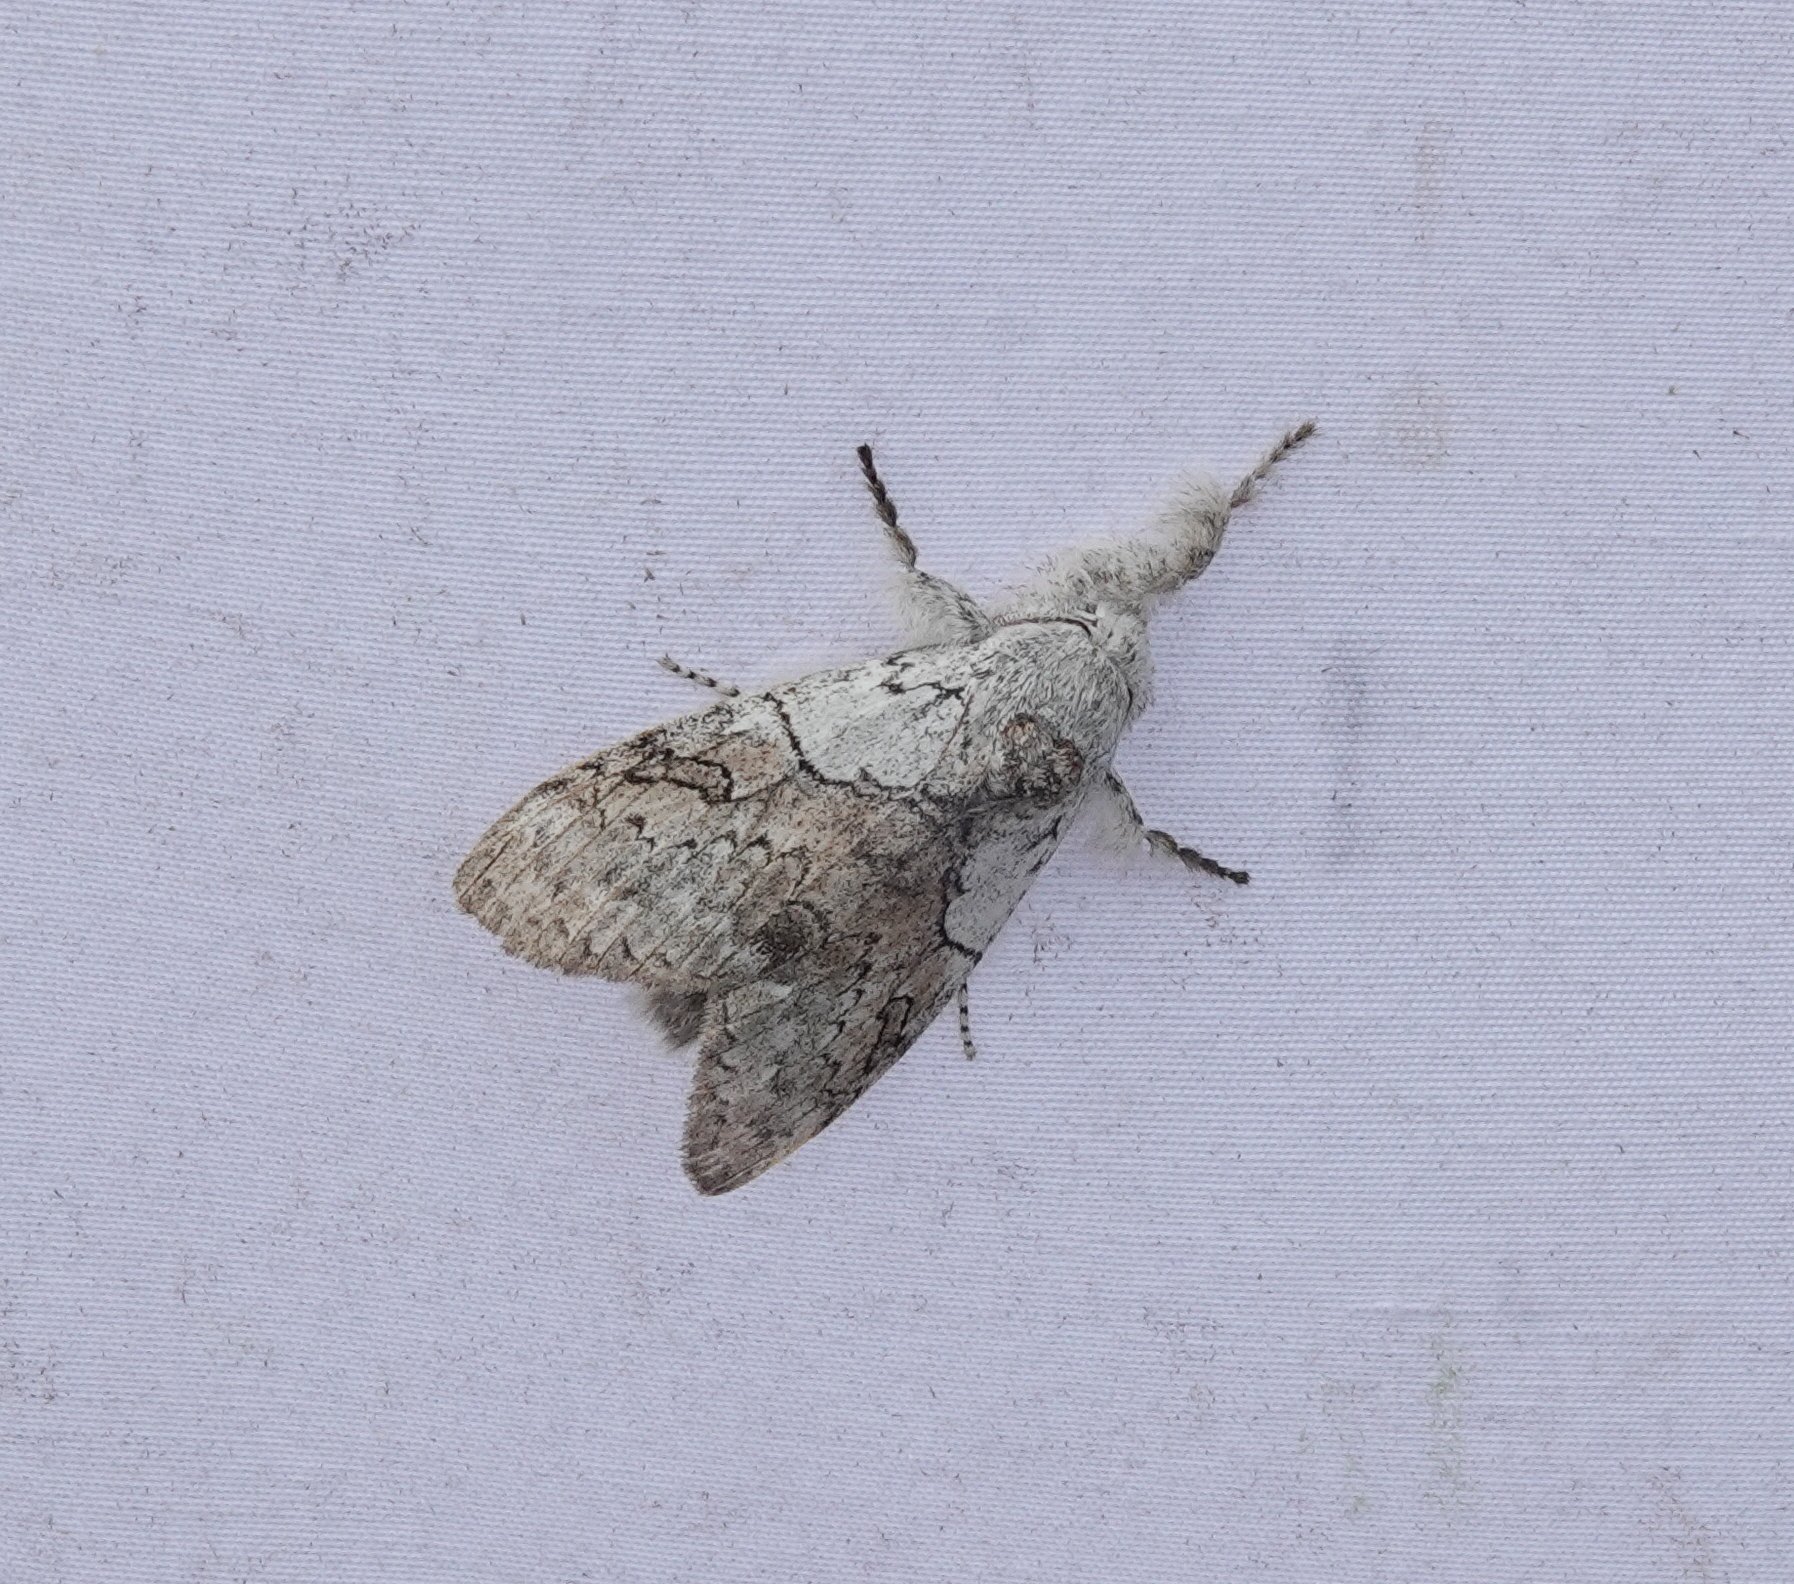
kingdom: Animalia
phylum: Arthropoda
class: Insecta
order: Lepidoptera
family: Erebidae
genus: Calliteara
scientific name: Calliteara grotei
